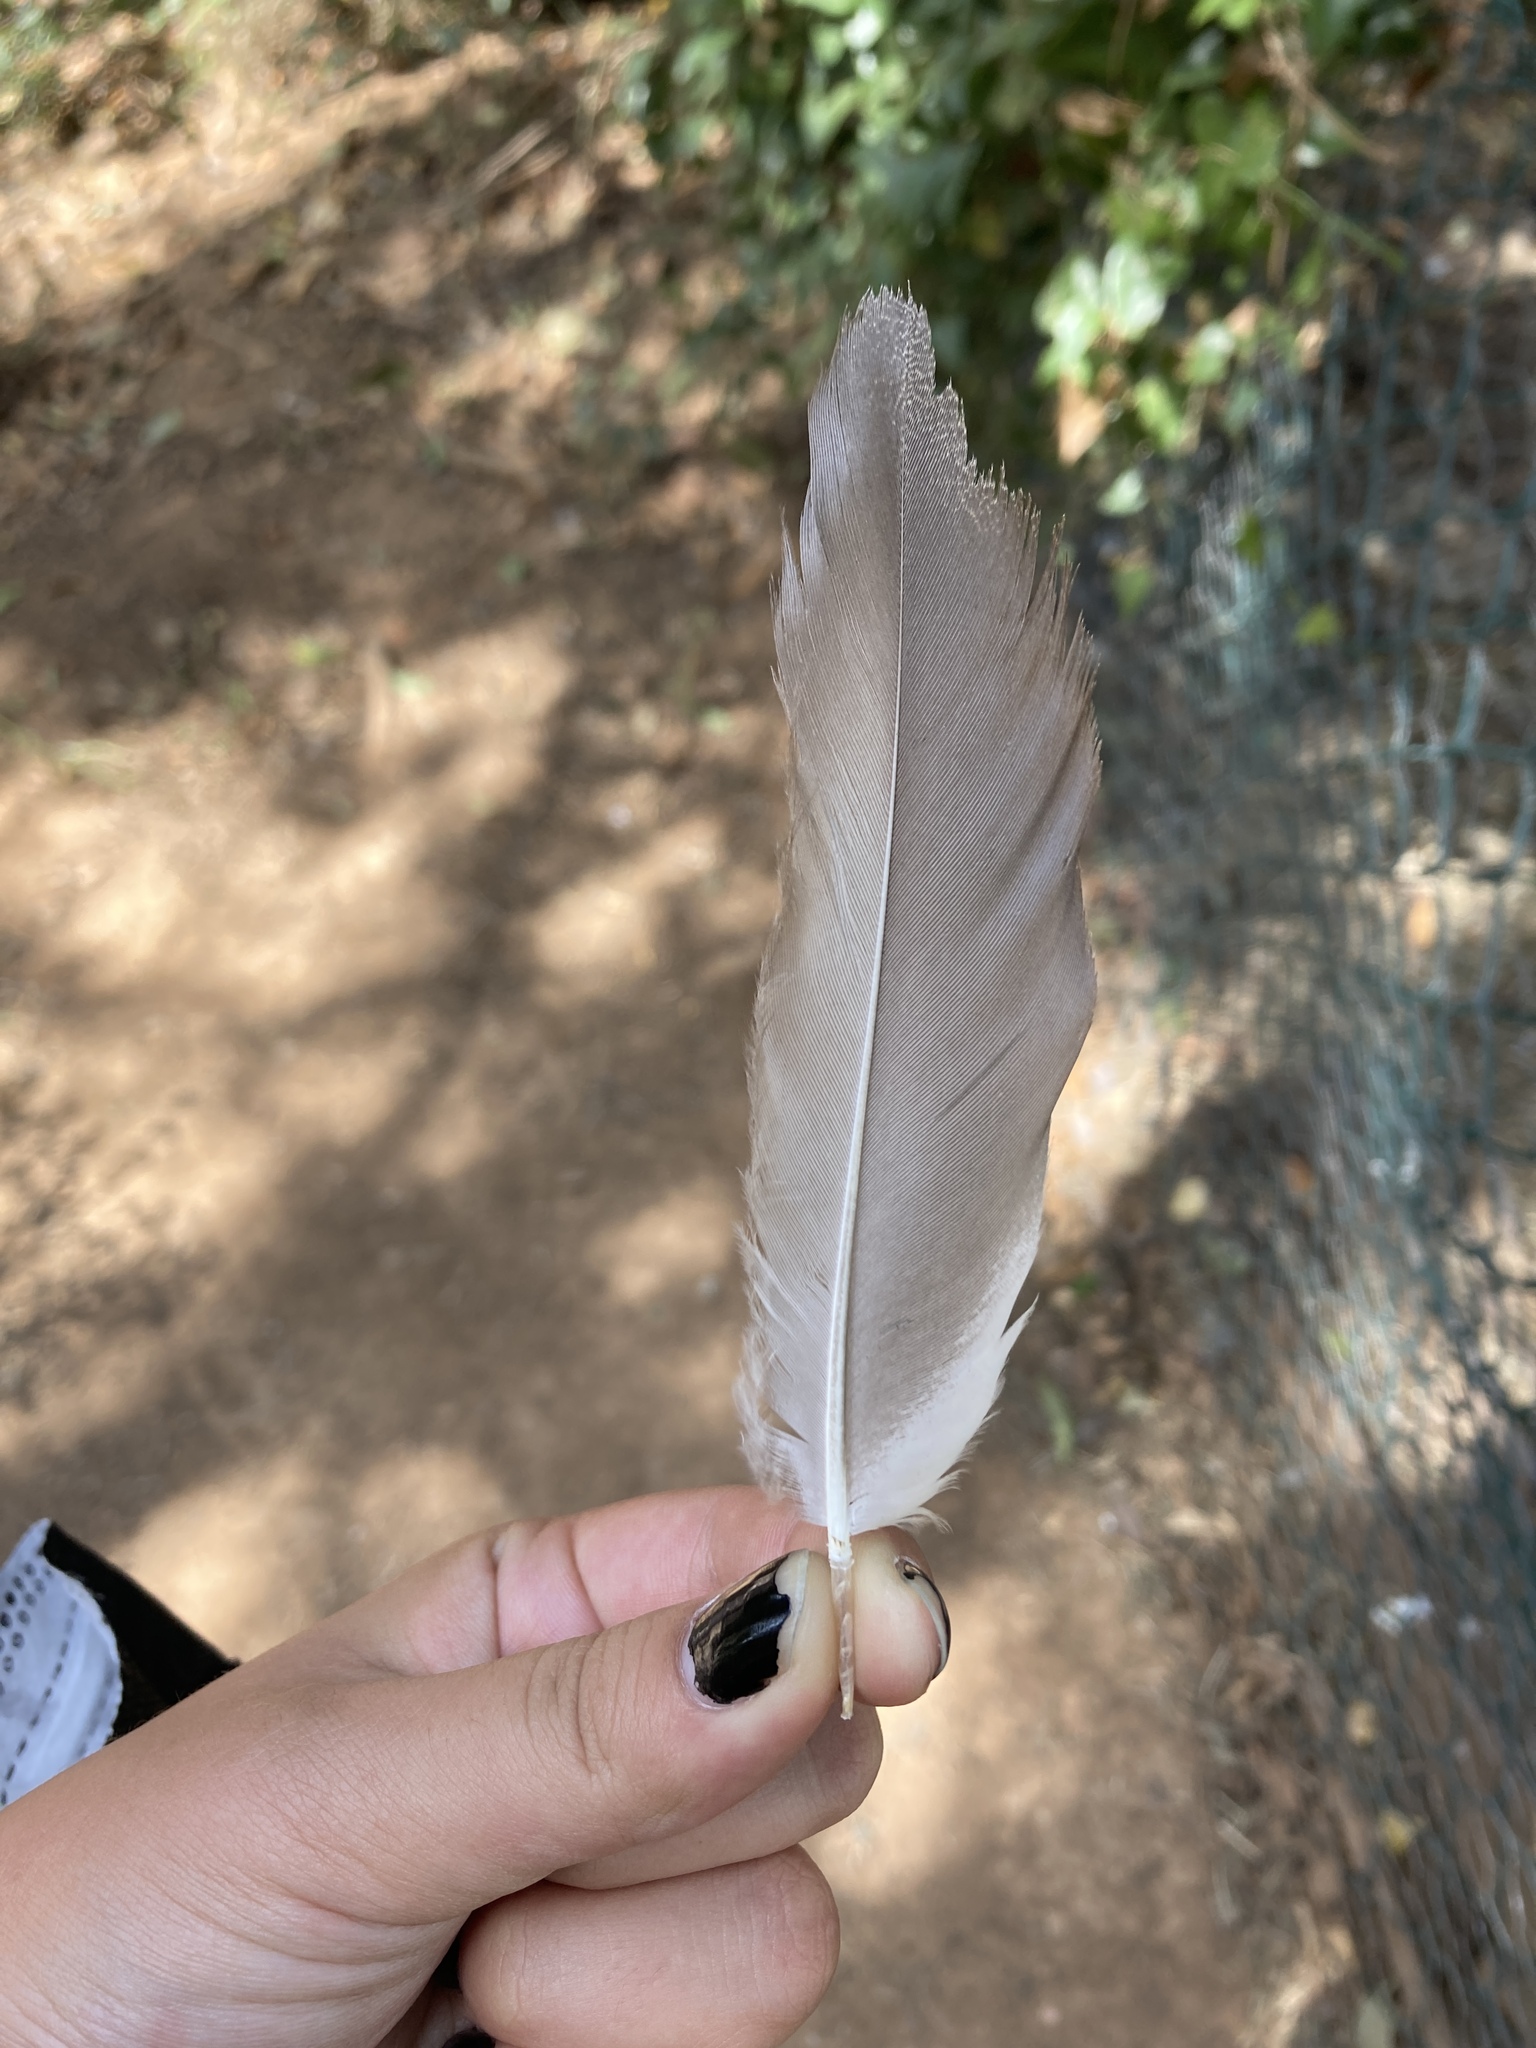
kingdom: Animalia
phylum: Chordata
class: Aves
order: Anseriformes
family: Anatidae
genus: Tadorna
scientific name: Tadorna ferruginea
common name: Ruddy shelduck
